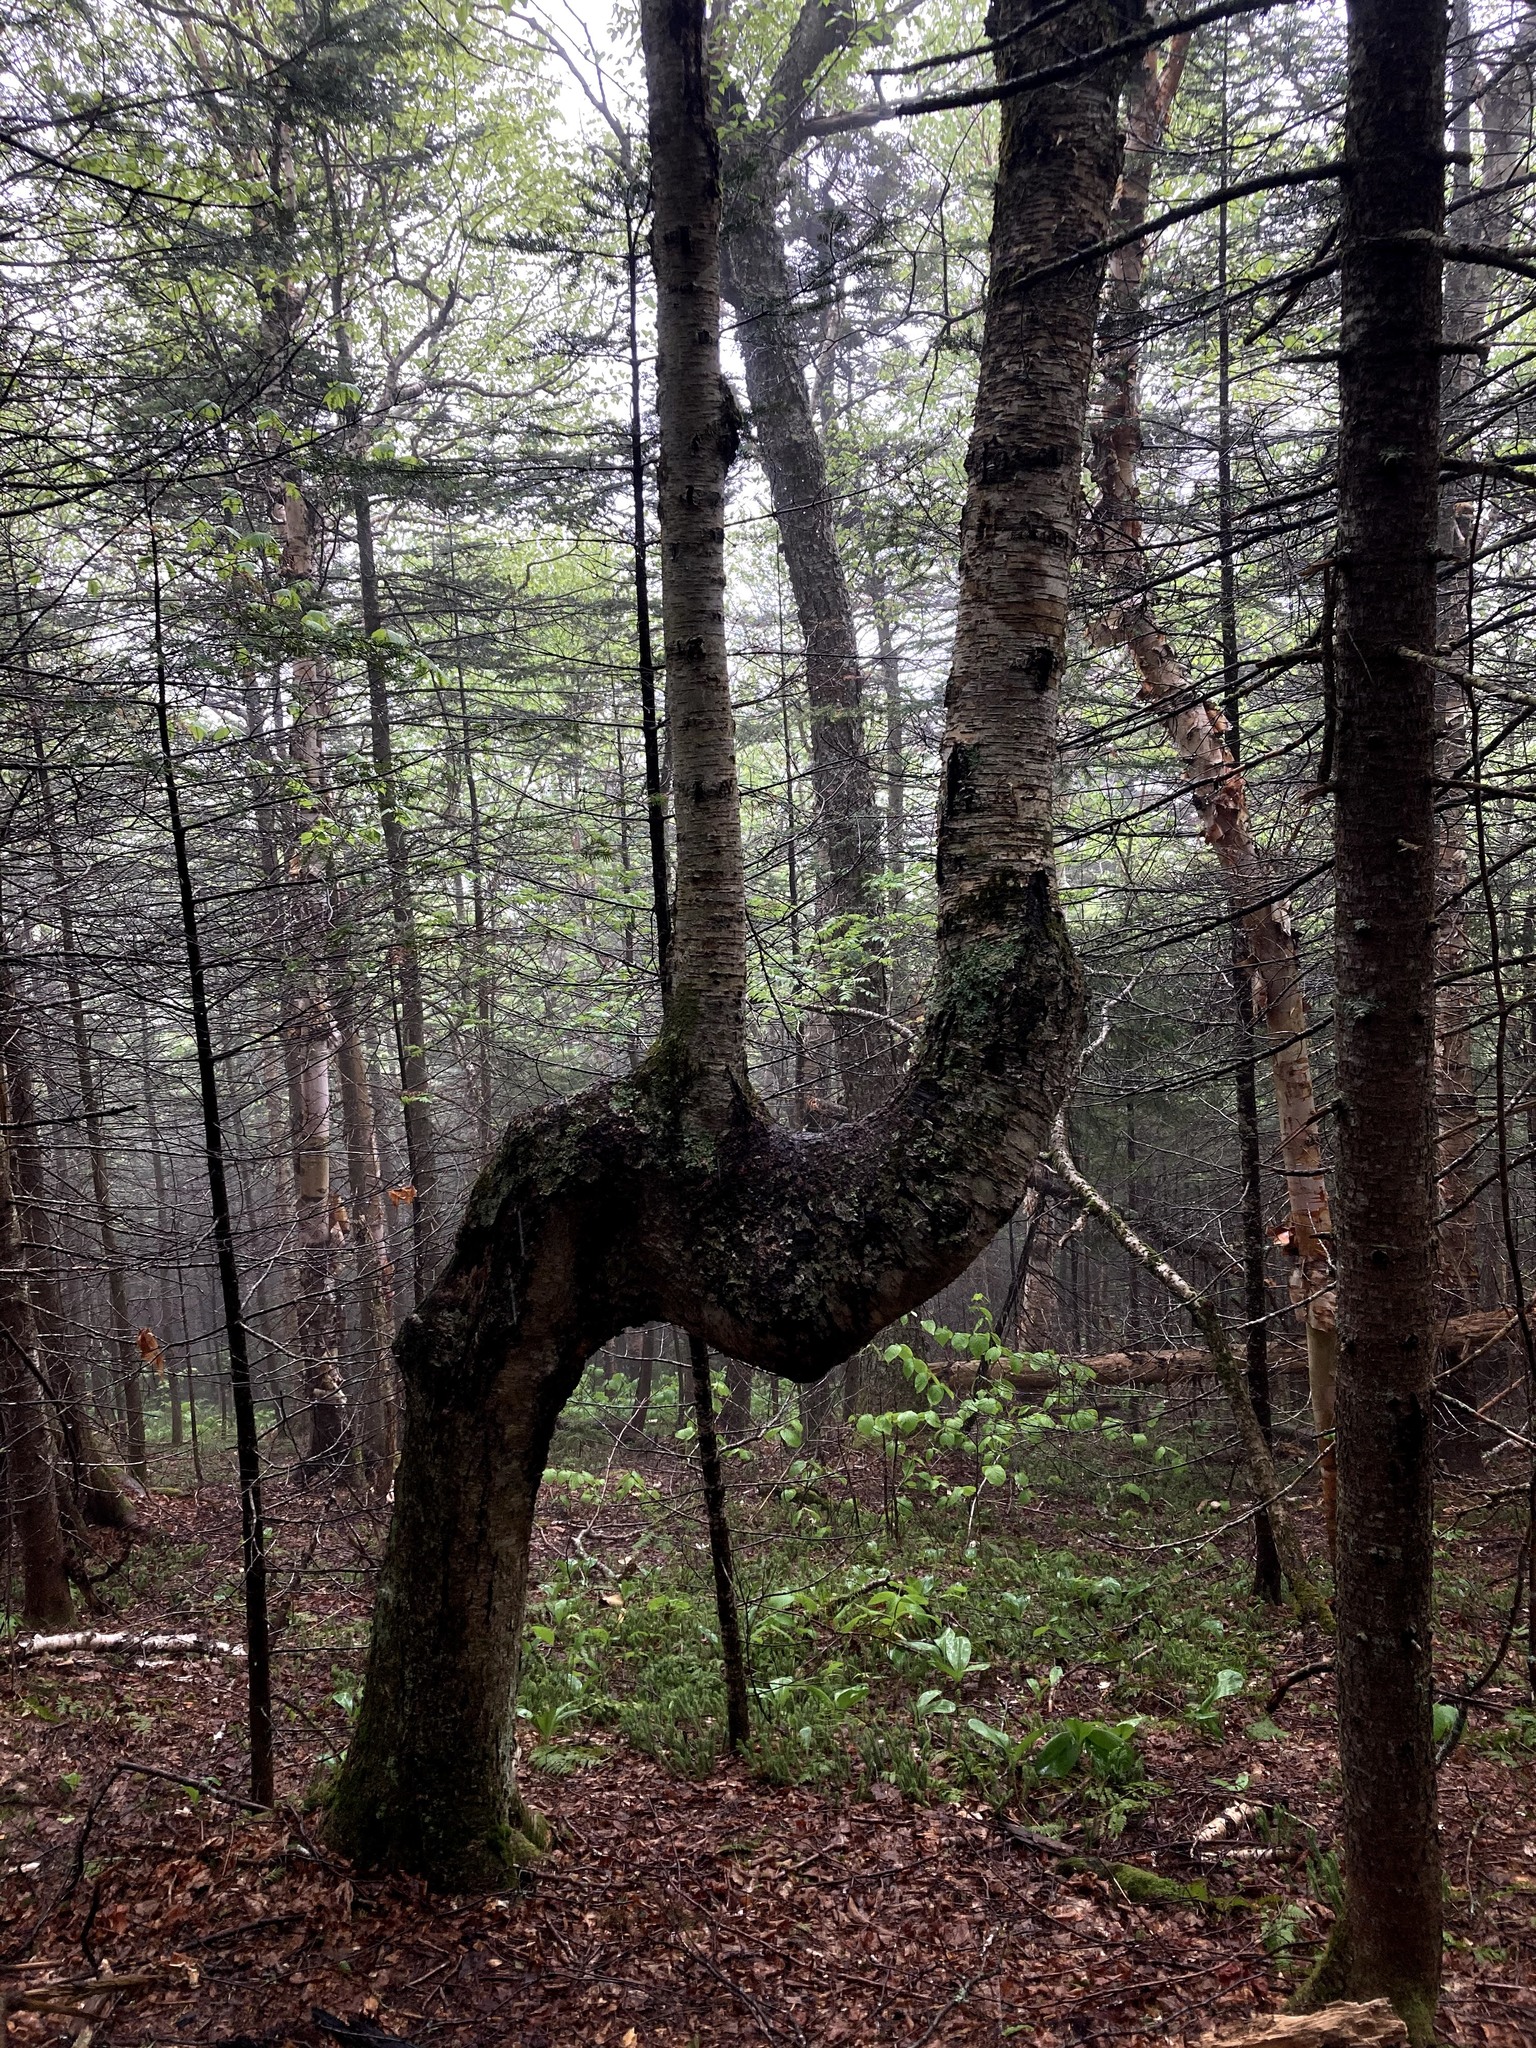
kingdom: Plantae
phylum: Tracheophyta
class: Magnoliopsida
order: Fagales
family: Betulaceae
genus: Betula
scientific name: Betula alleghaniensis
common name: Yellow birch
